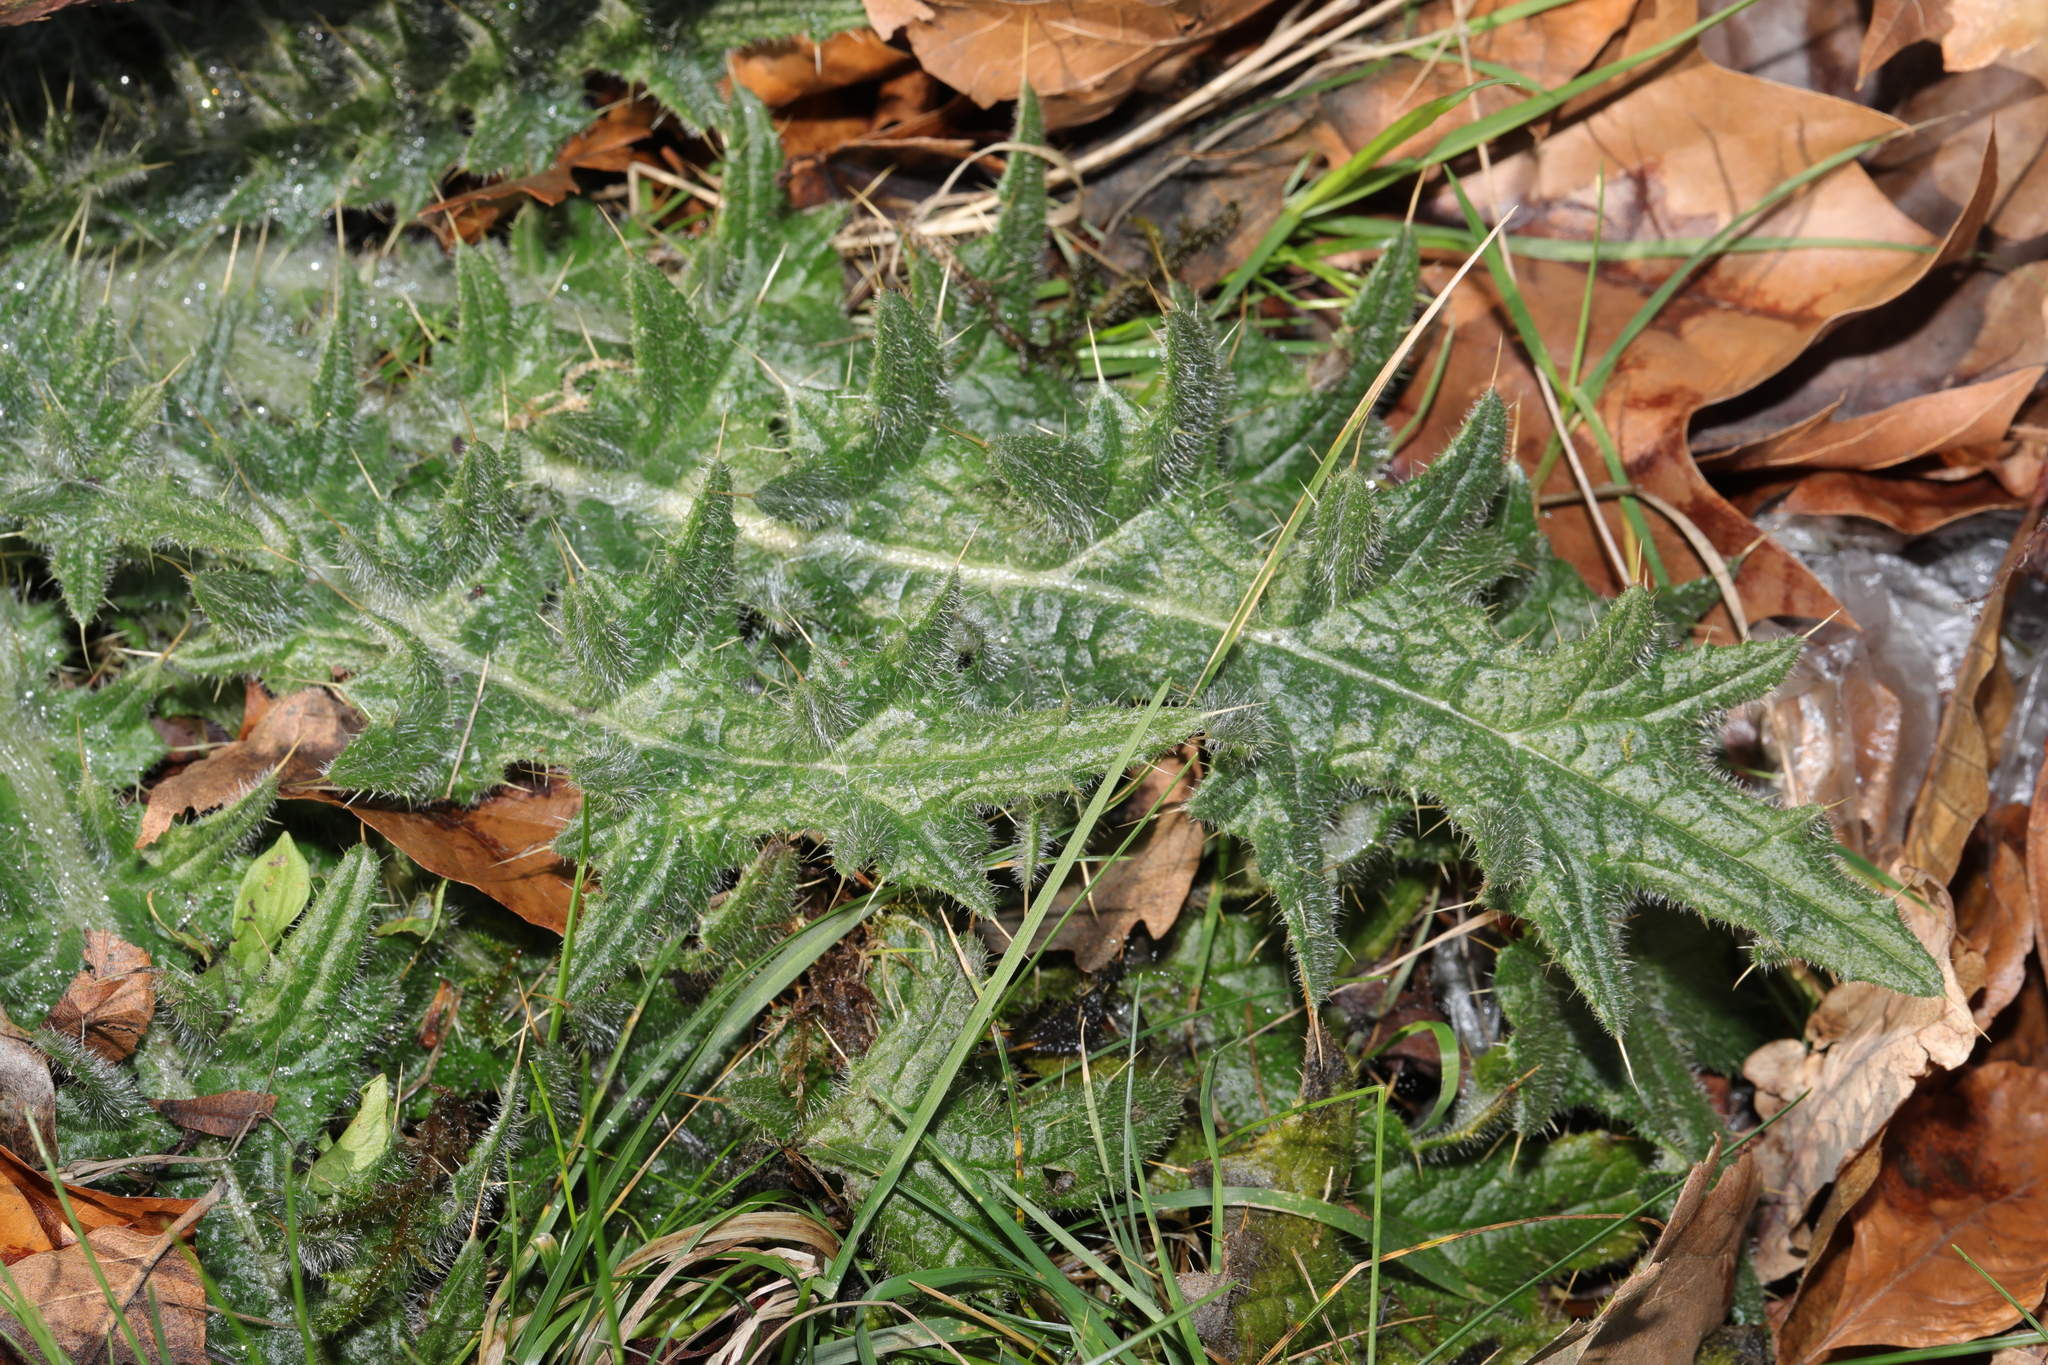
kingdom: Plantae
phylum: Tracheophyta
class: Magnoliopsida
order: Asterales
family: Asteraceae
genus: Cirsium
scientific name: Cirsium vulgare
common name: Bull thistle
